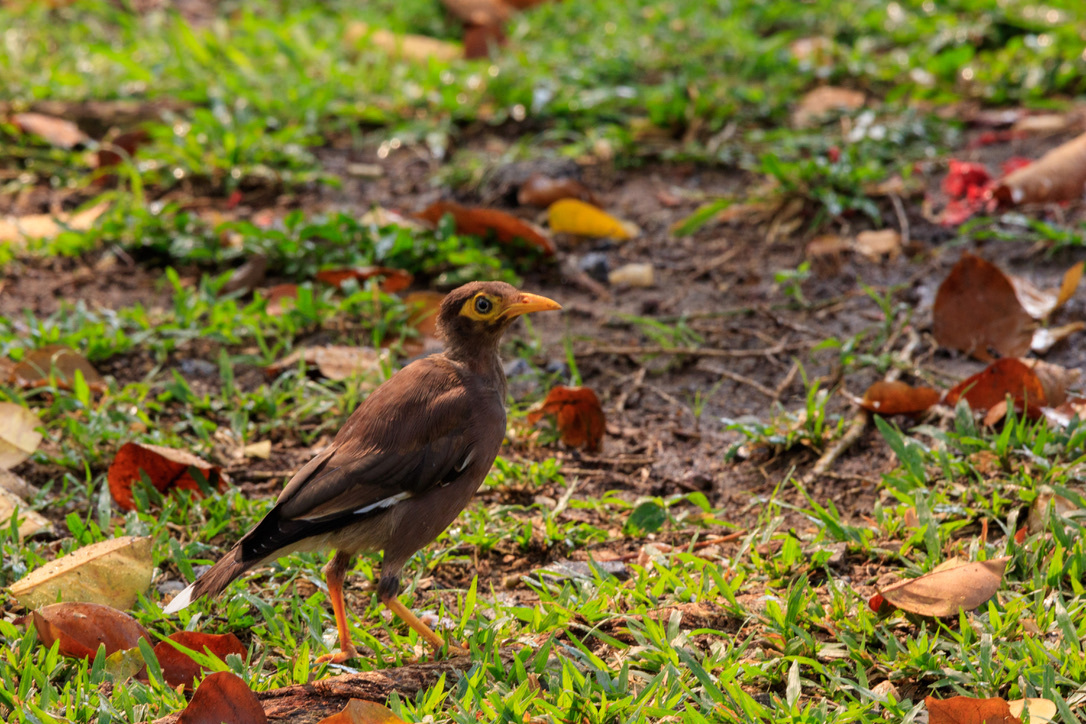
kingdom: Animalia
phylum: Chordata
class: Aves
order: Passeriformes
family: Sturnidae
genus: Acridotheres
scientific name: Acridotheres tristis
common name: Common myna
